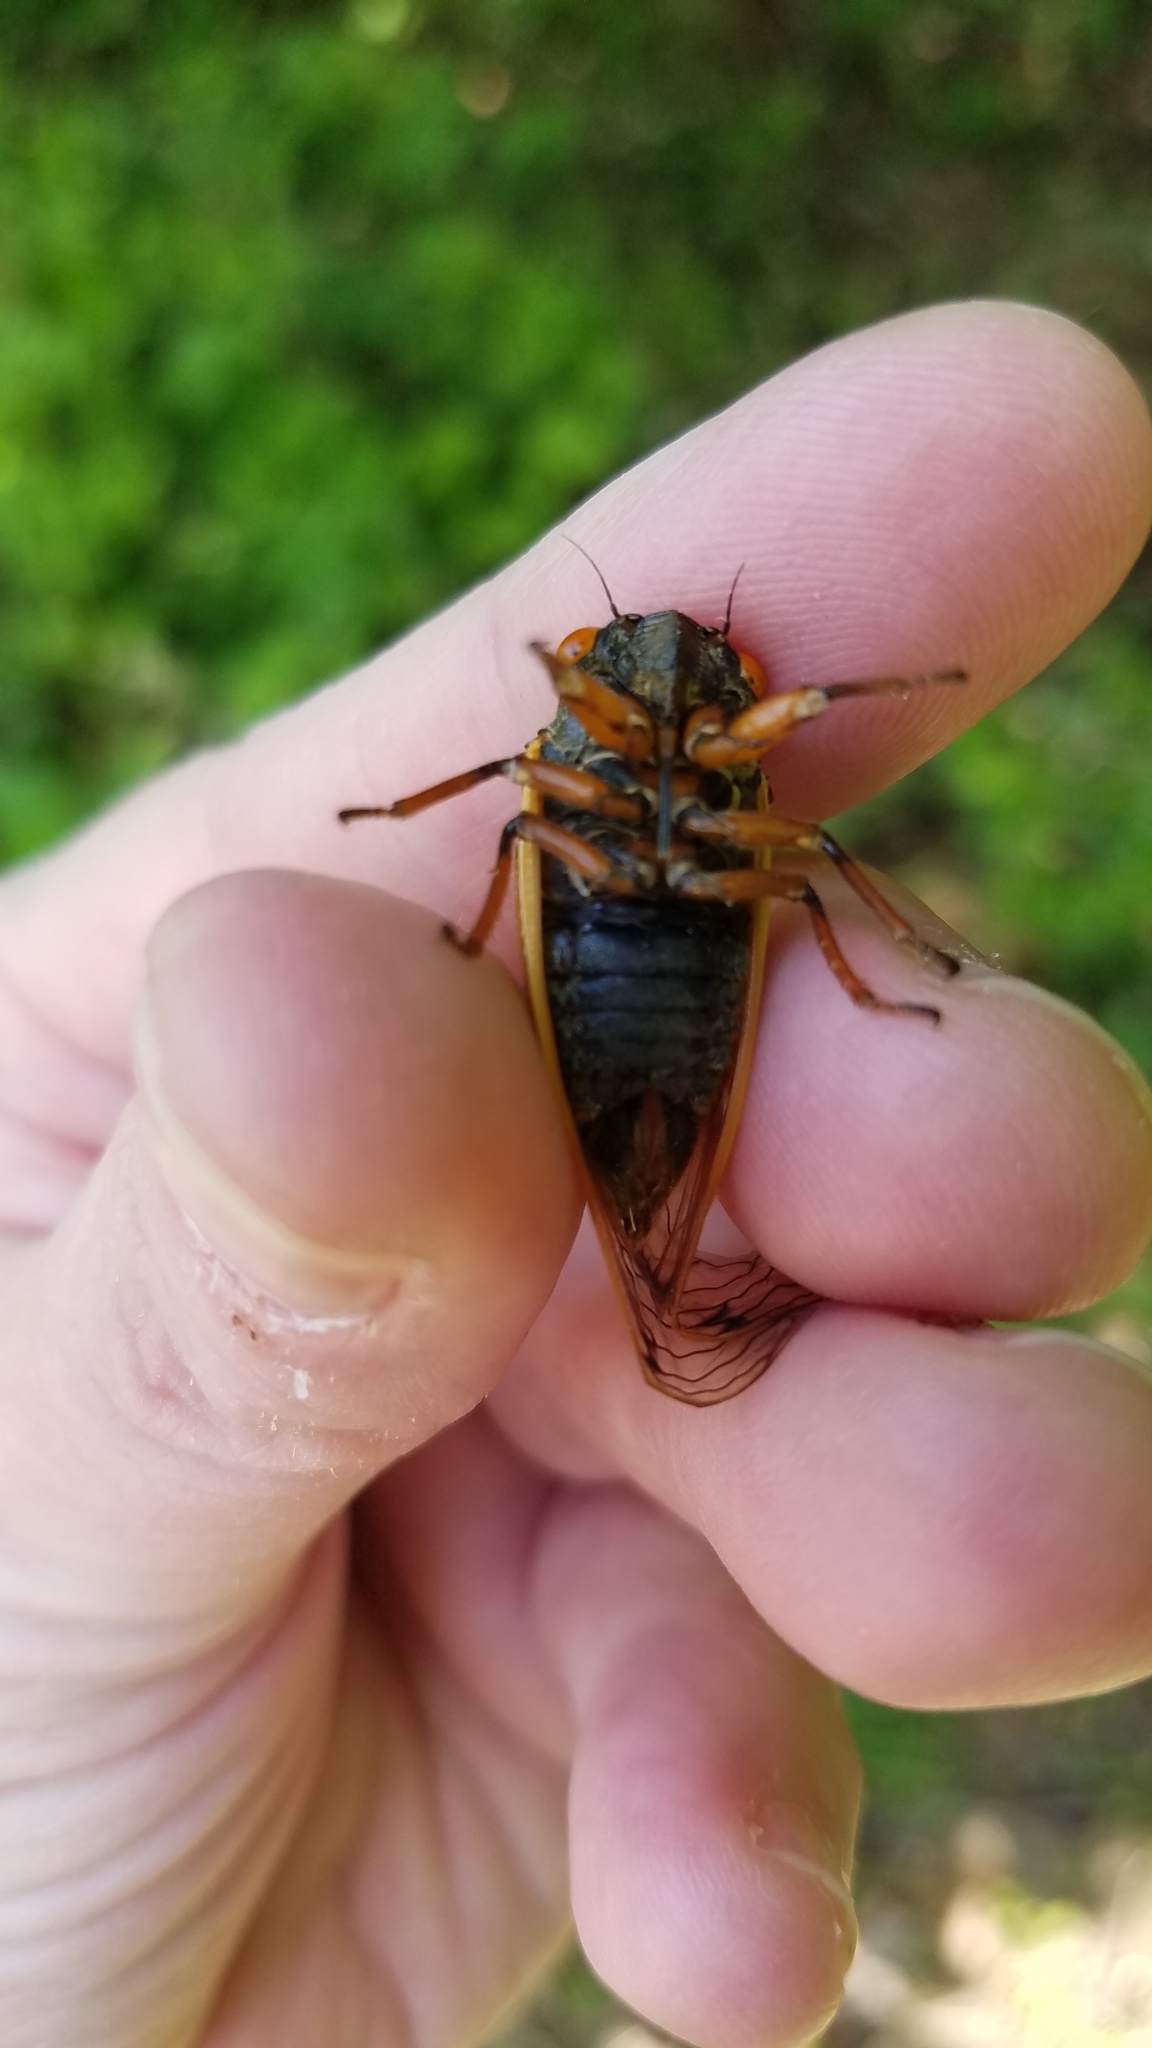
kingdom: Animalia
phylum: Arthropoda
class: Insecta
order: Hemiptera
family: Cicadidae
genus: Magicicada
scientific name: Magicicada cassini
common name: Cassin's 17-year cicada
